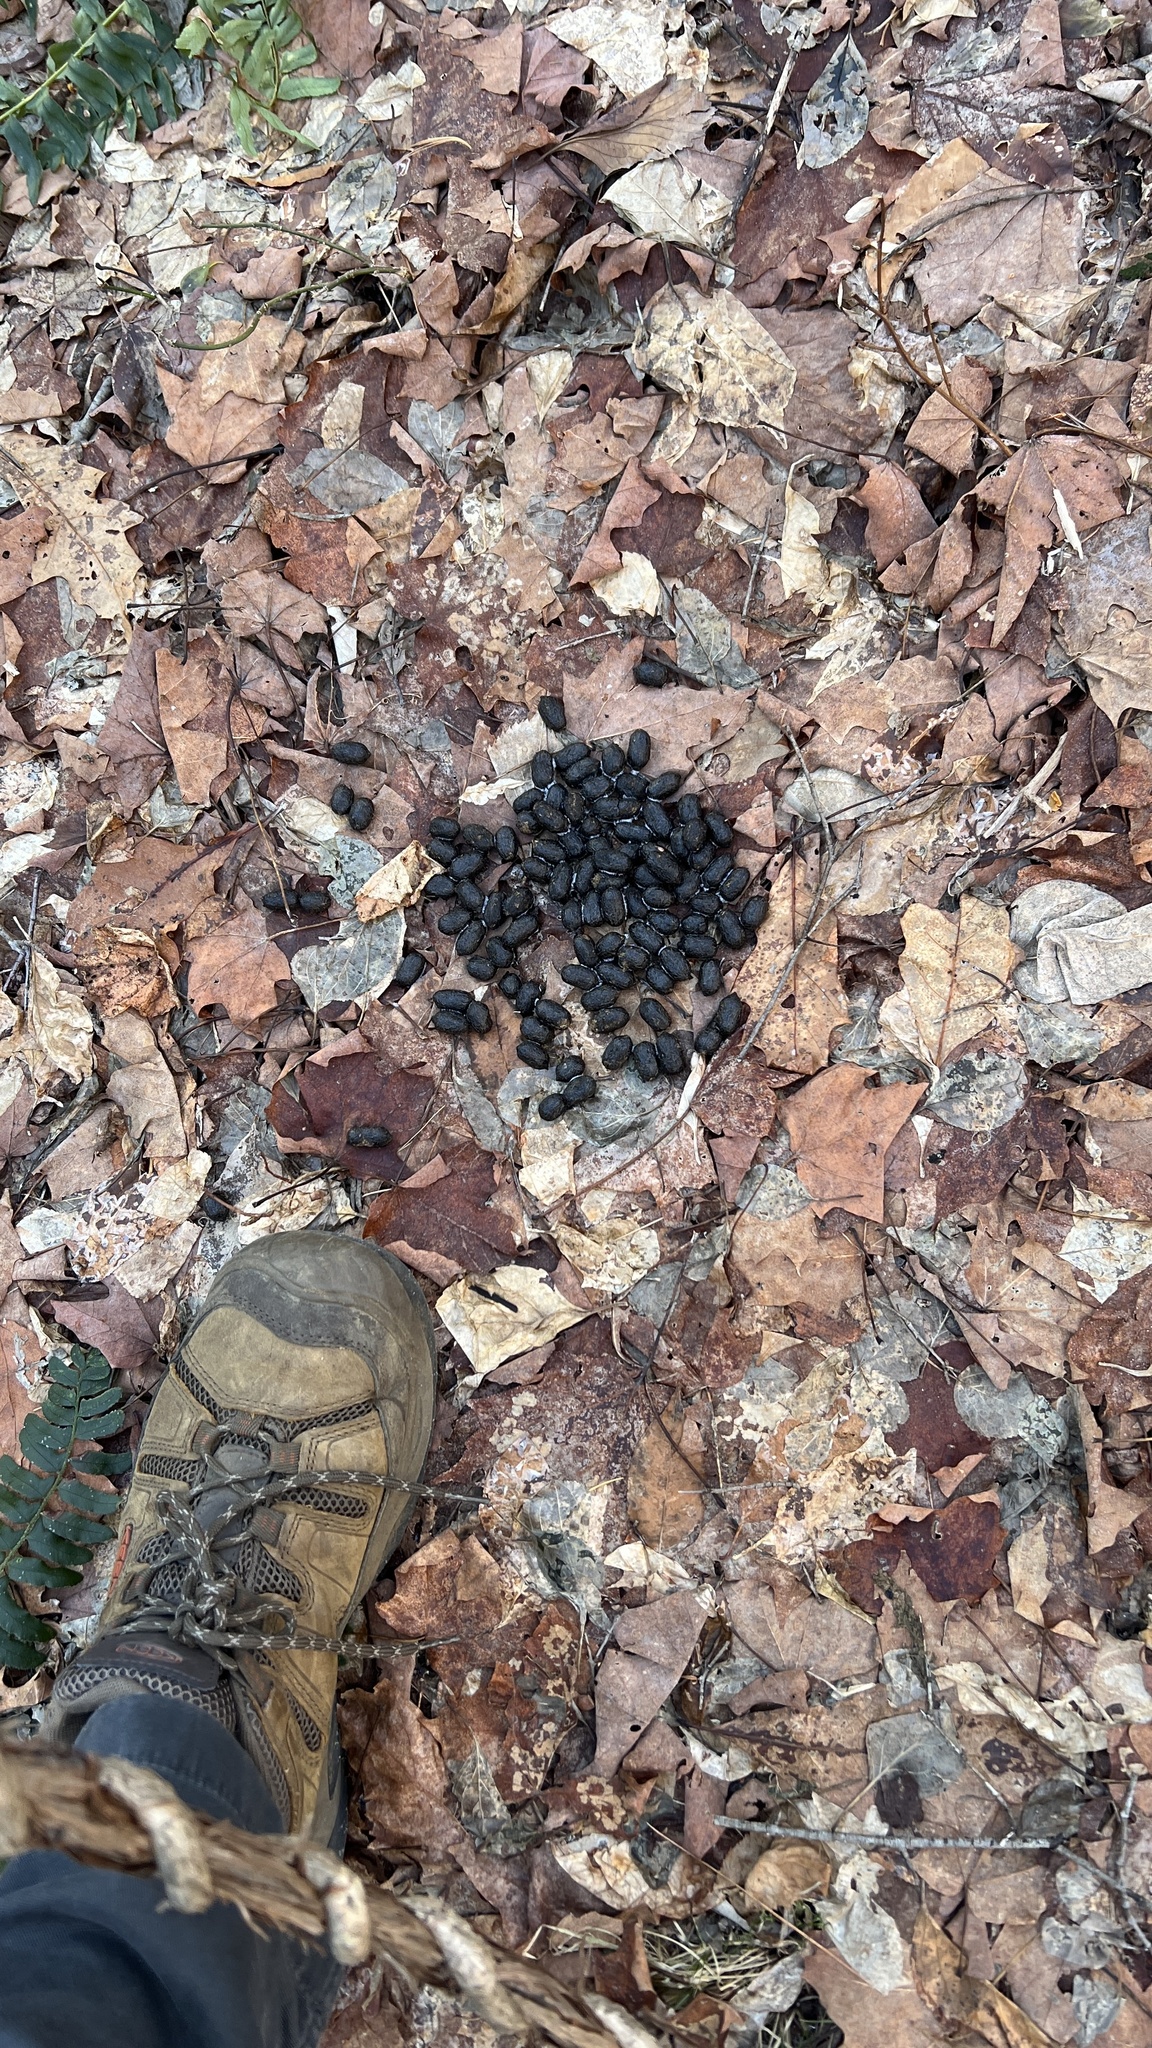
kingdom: Animalia
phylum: Chordata
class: Mammalia
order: Artiodactyla
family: Cervidae
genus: Odocoileus
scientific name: Odocoileus virginianus
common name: White-tailed deer
